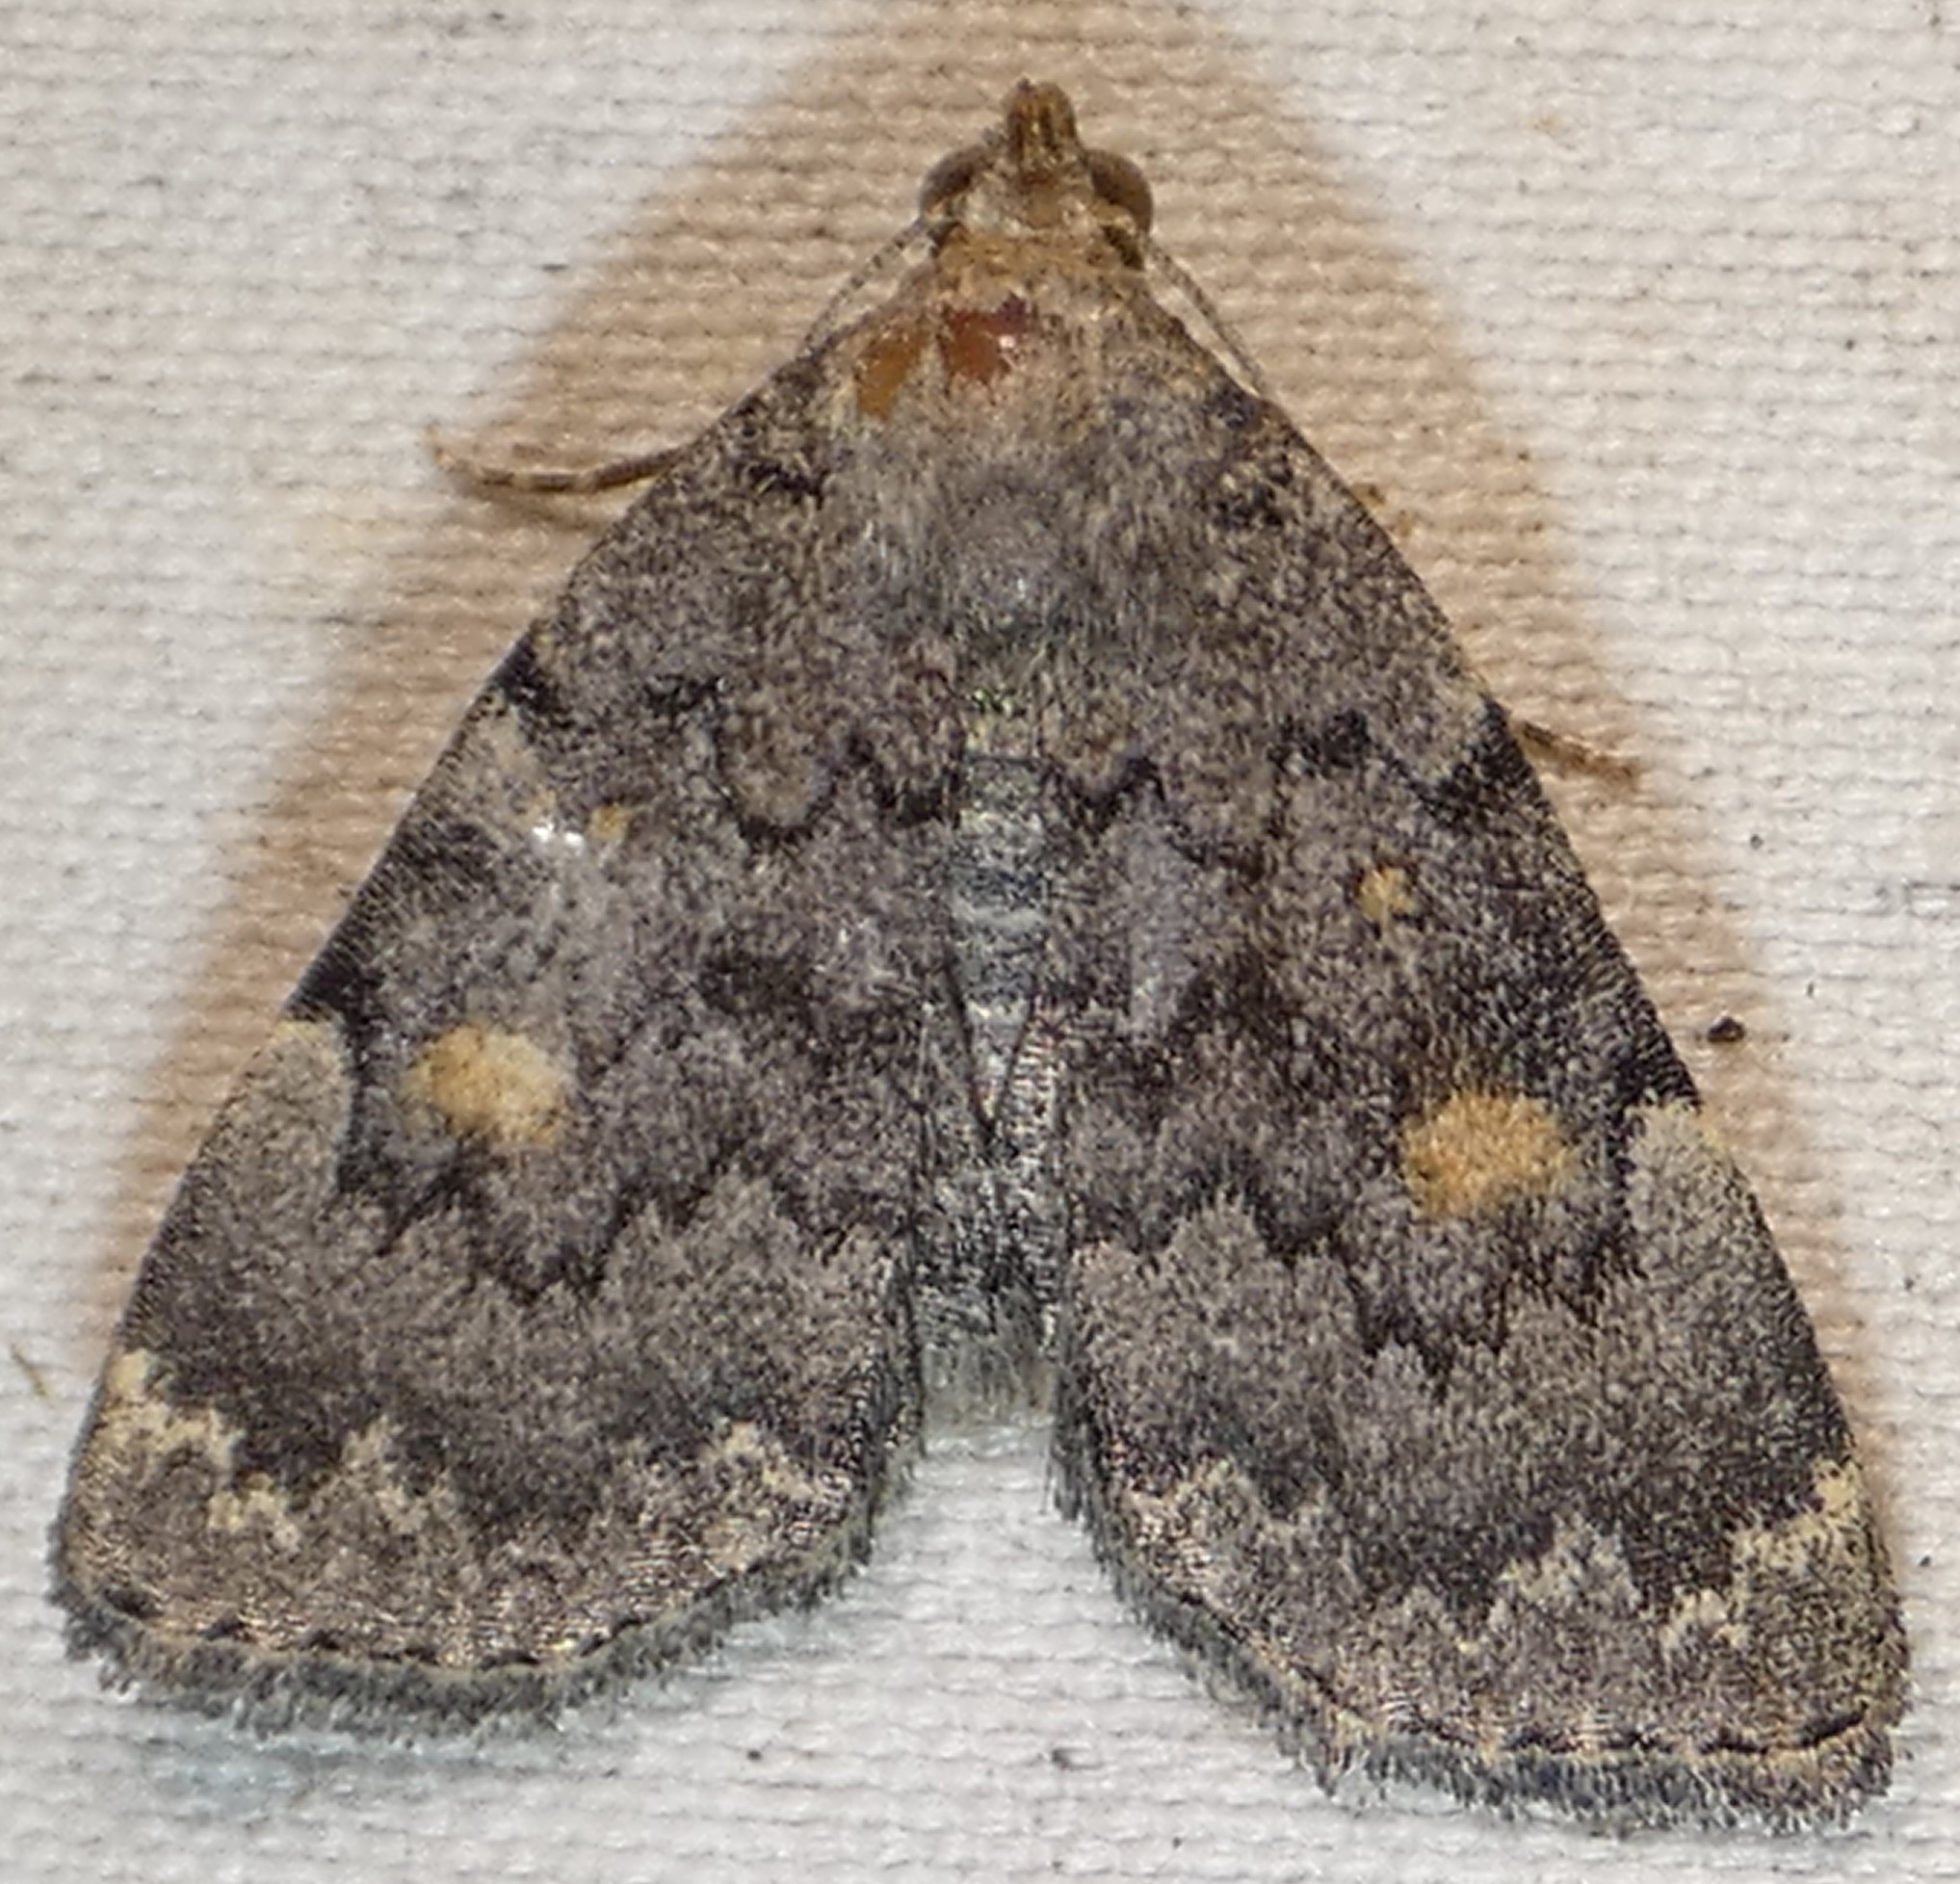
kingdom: Animalia
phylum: Arthropoda
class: Insecta
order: Lepidoptera
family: Erebidae
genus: Idia
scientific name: Idia aemula
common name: Common idia moth
